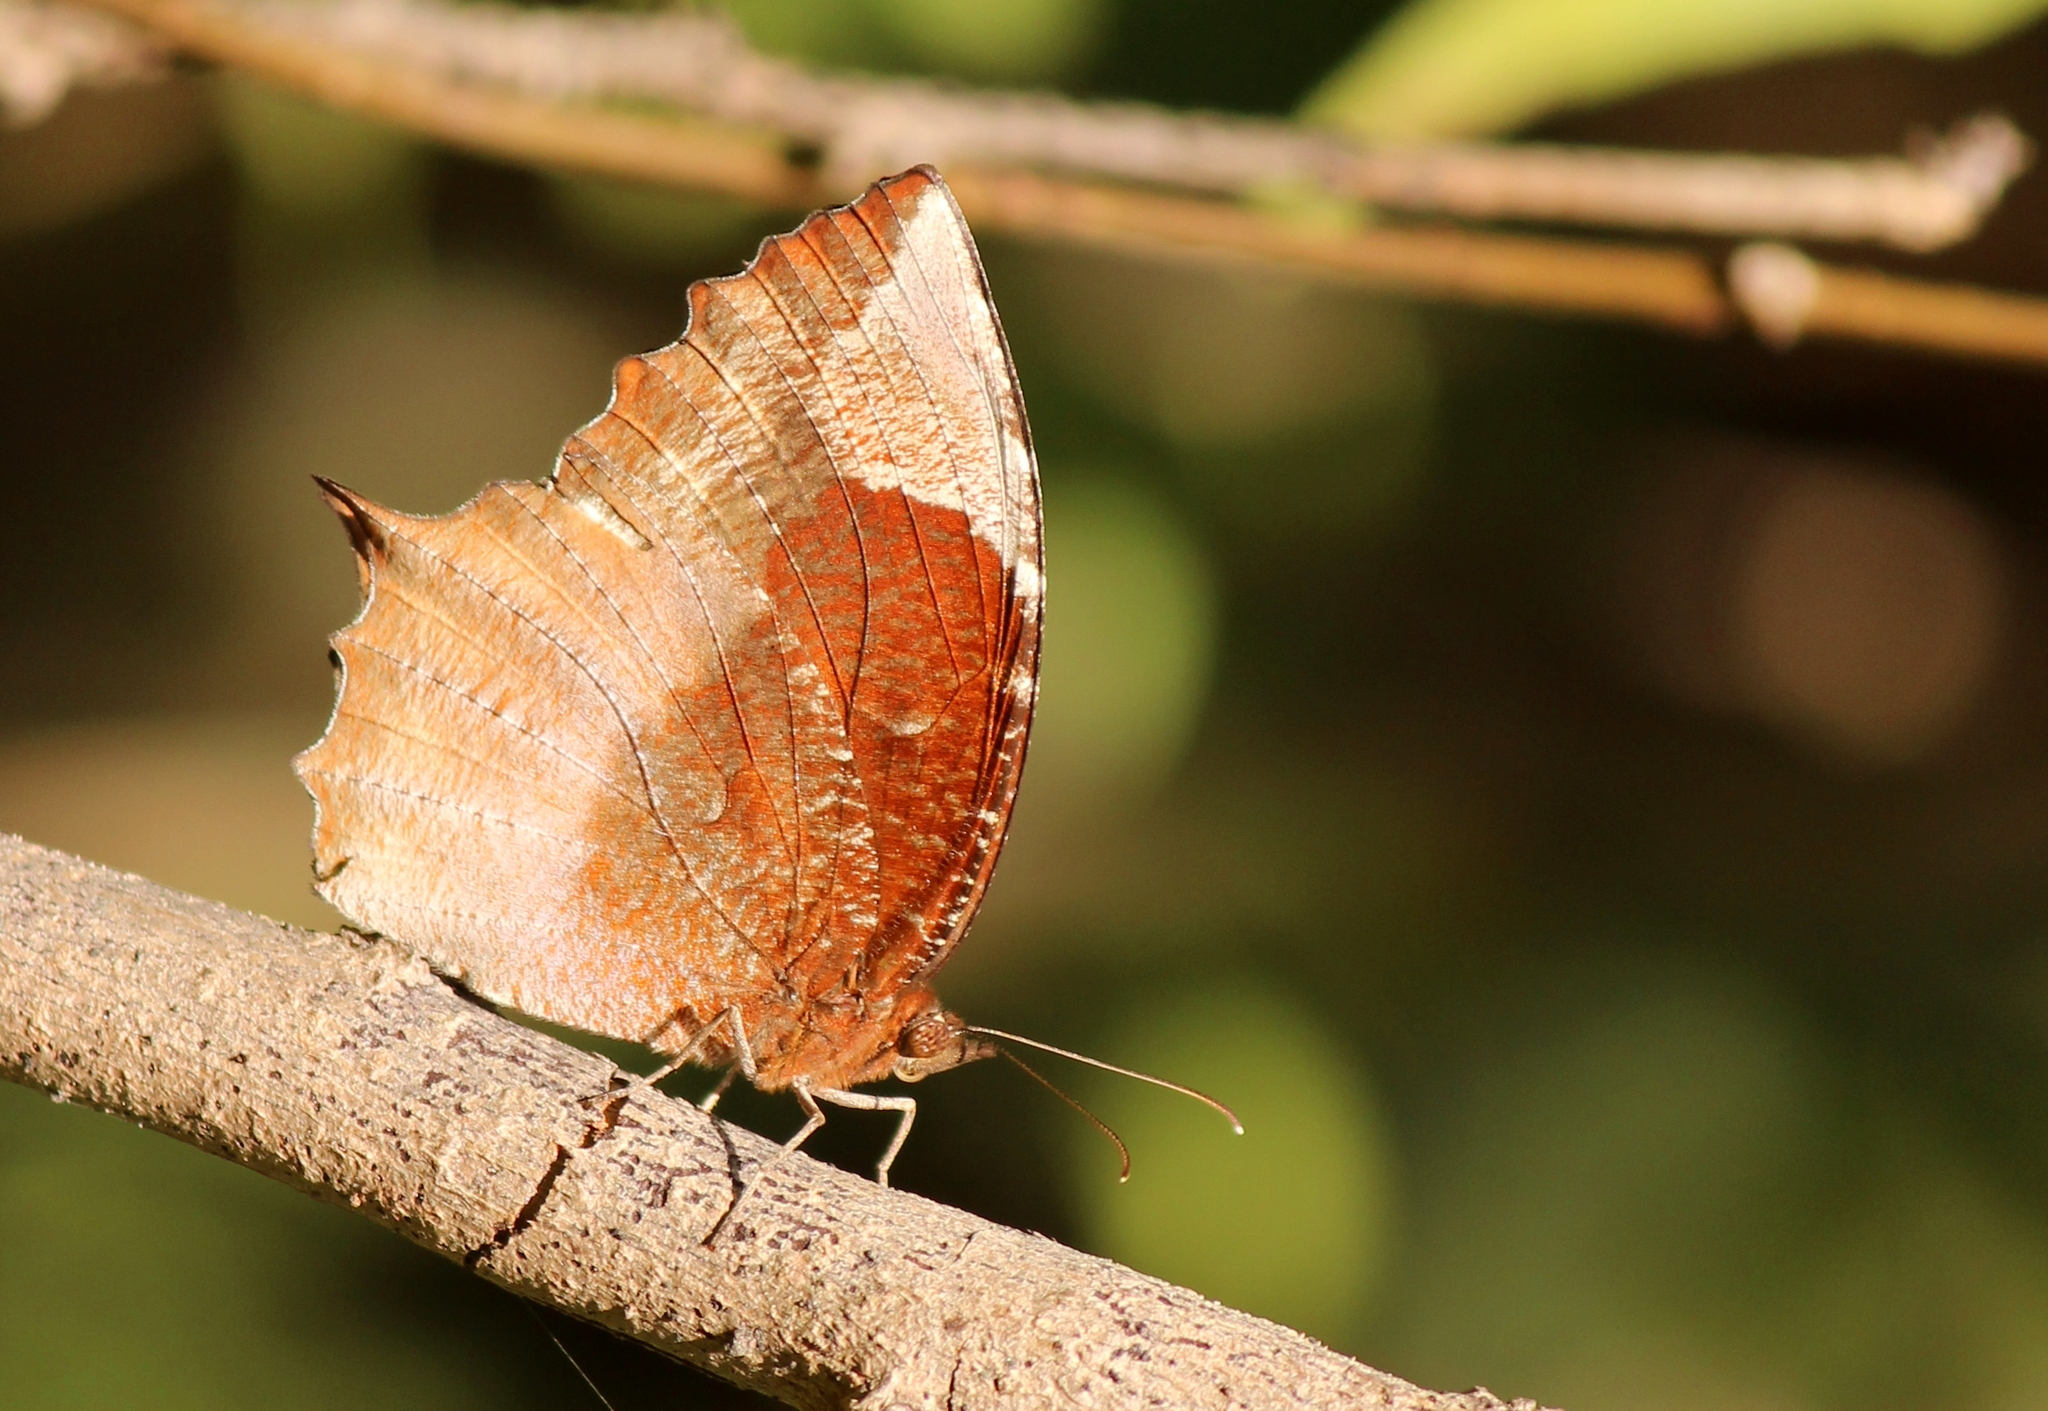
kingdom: Animalia
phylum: Arthropoda
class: Insecta
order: Lepidoptera
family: Nymphalidae
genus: Elymnias
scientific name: Elymnias caudata
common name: Tailed palmfly
